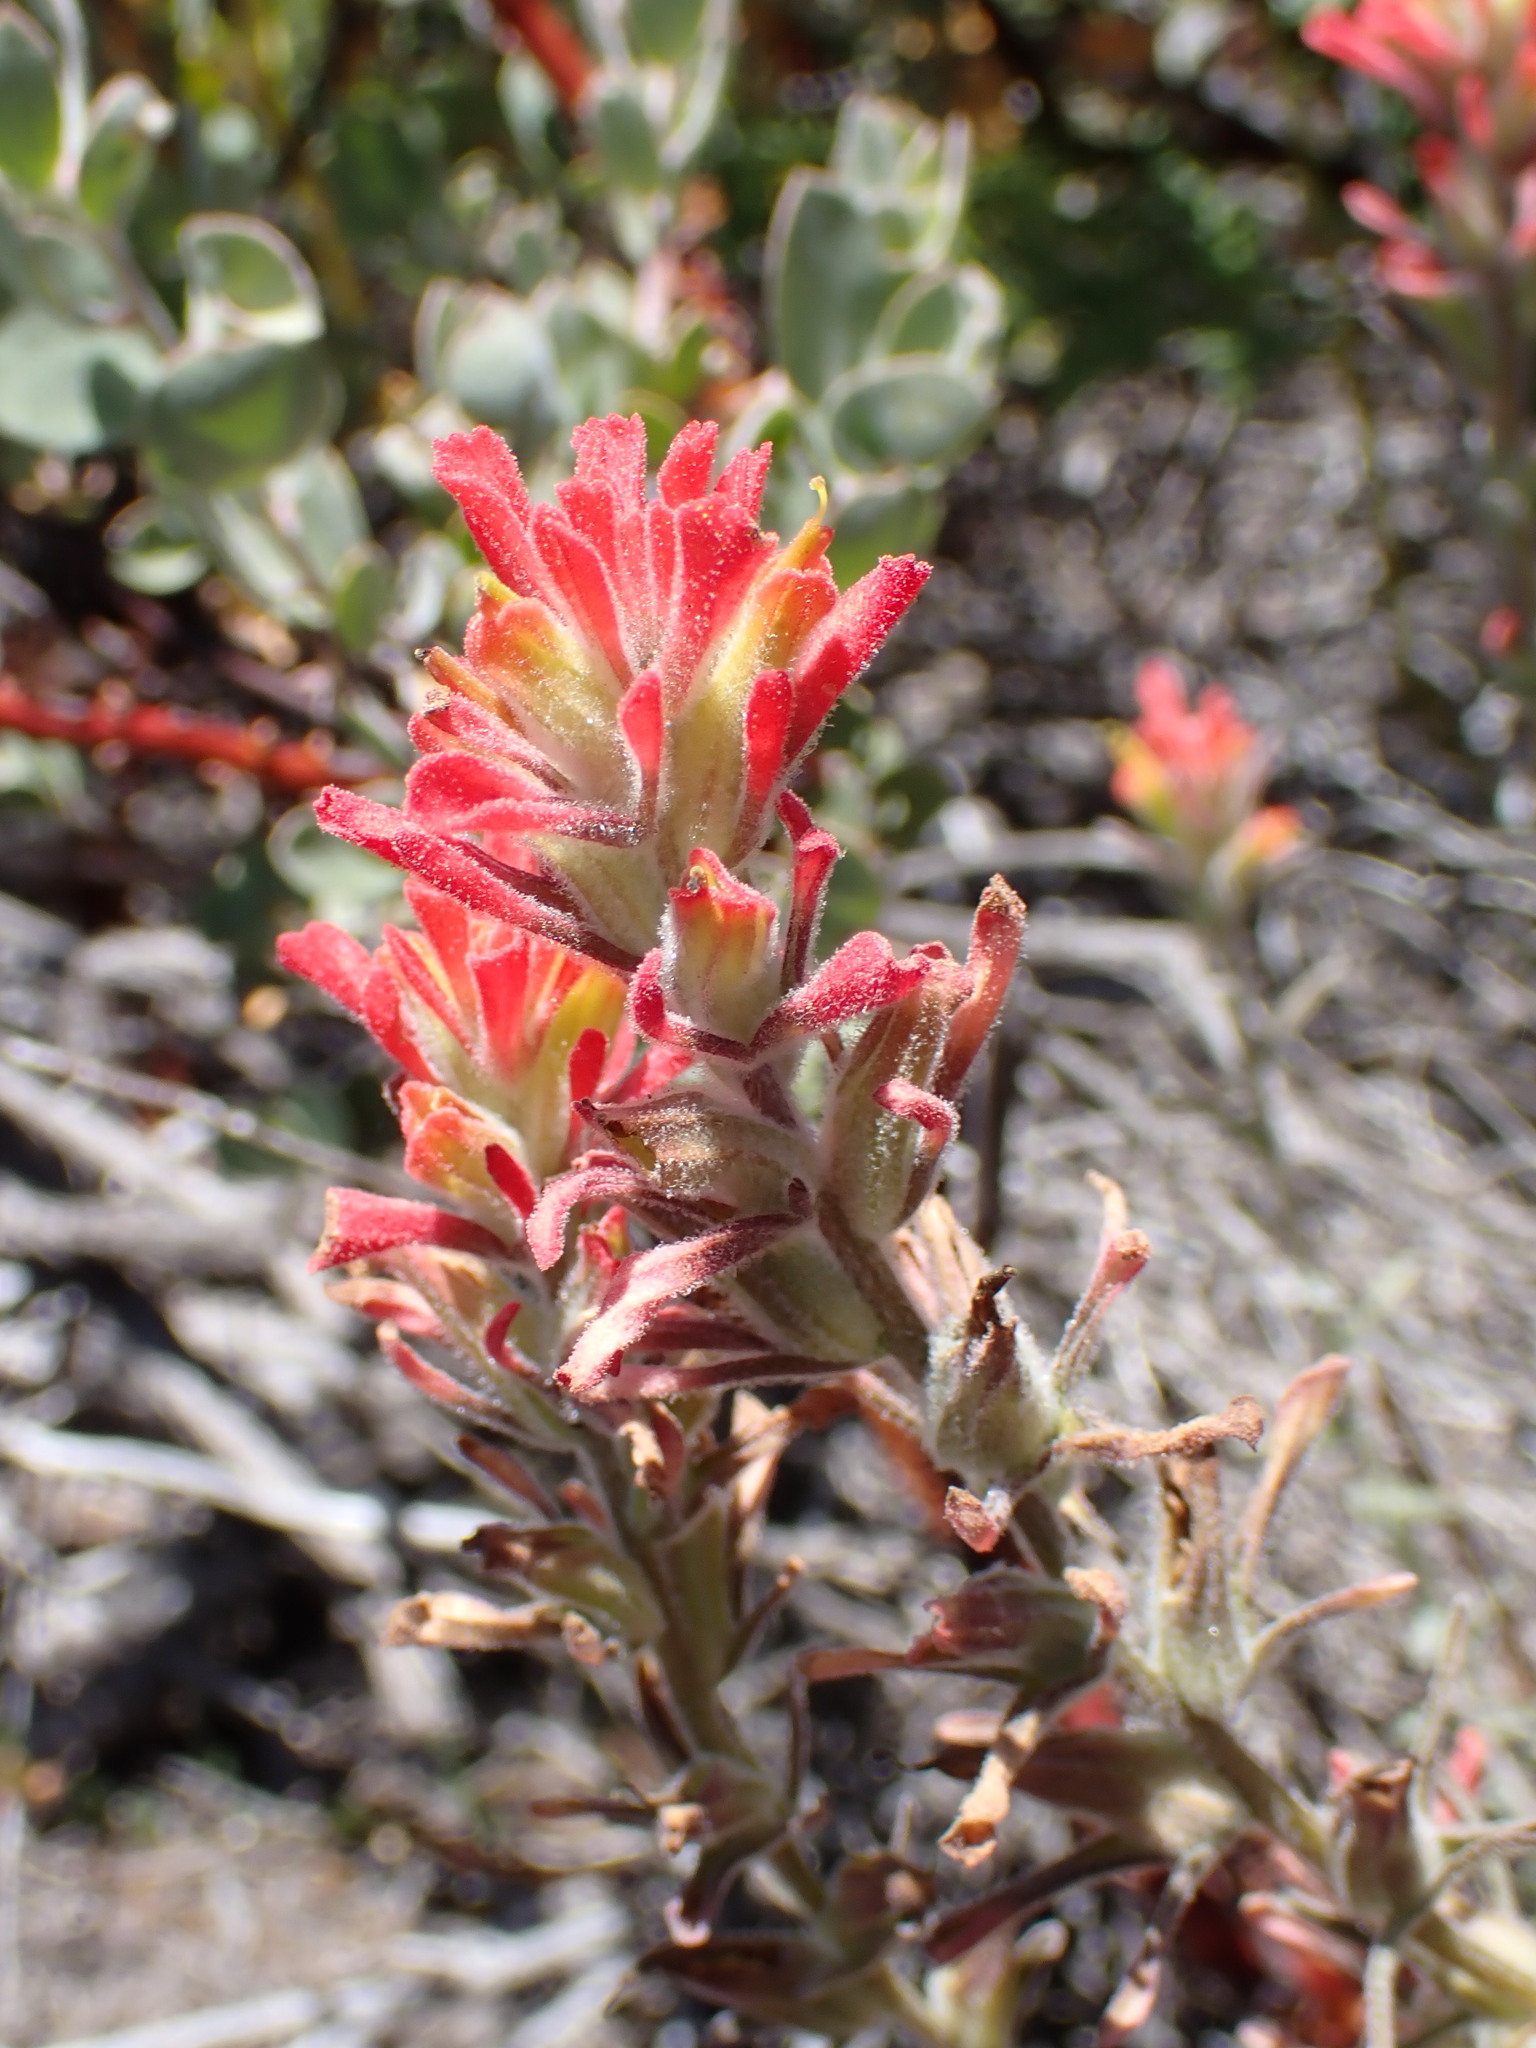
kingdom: Plantae
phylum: Tracheophyta
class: Magnoliopsida
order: Lamiales
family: Orobanchaceae
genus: Castilleja
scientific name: Castilleja foliolosa
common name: Woolly indian paintbrush
